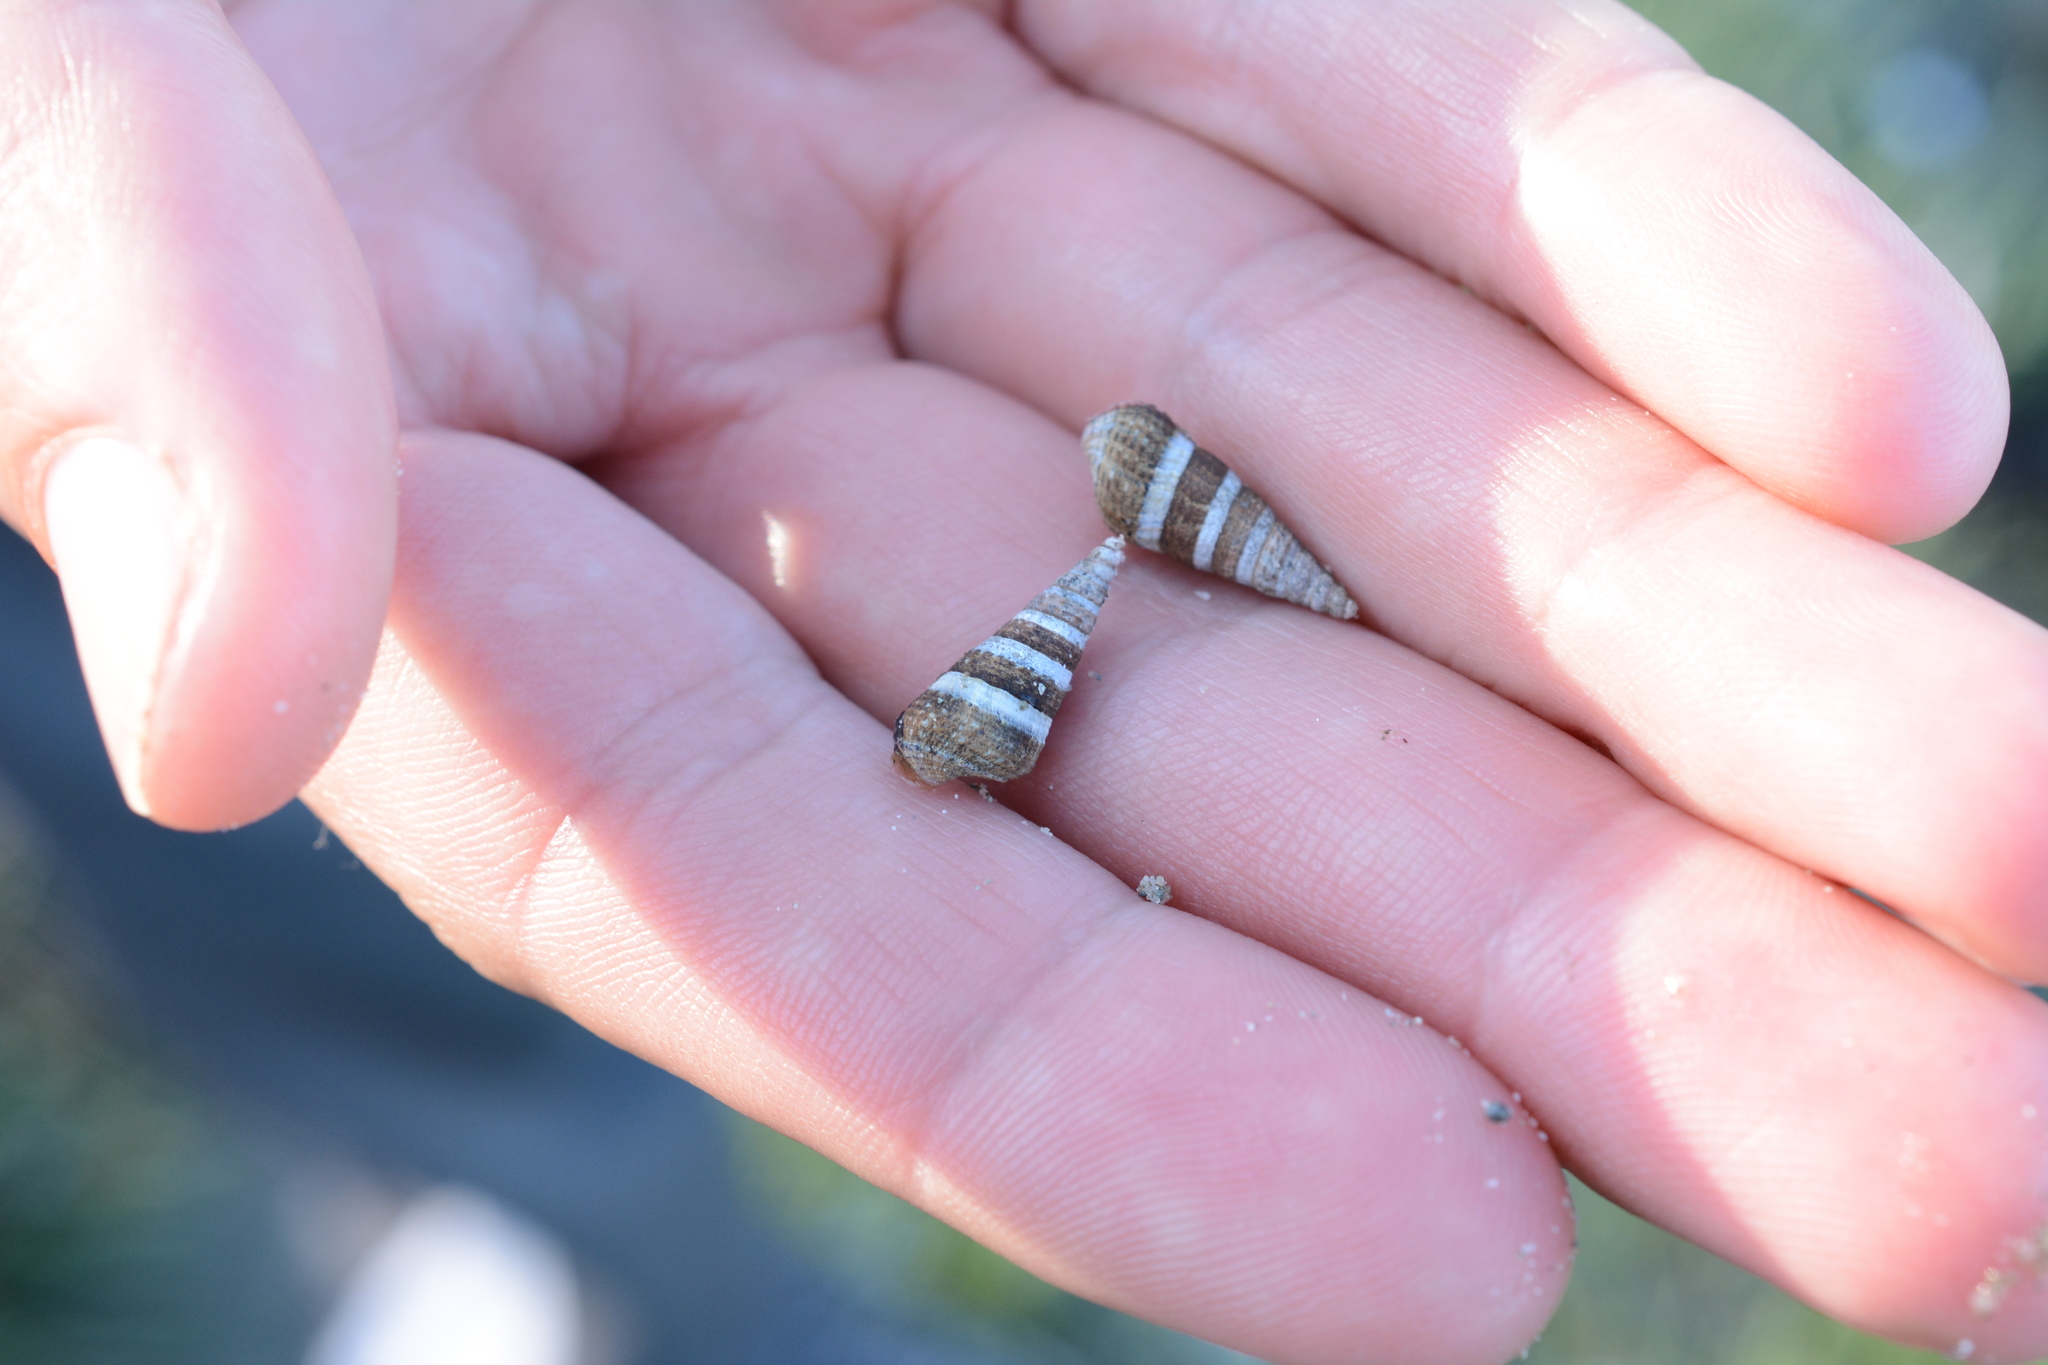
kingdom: Animalia
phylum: Mollusca
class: Gastropoda
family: Batillariidae
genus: Batillaria
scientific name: Batillaria attramentaria
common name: Japanese false cerith
